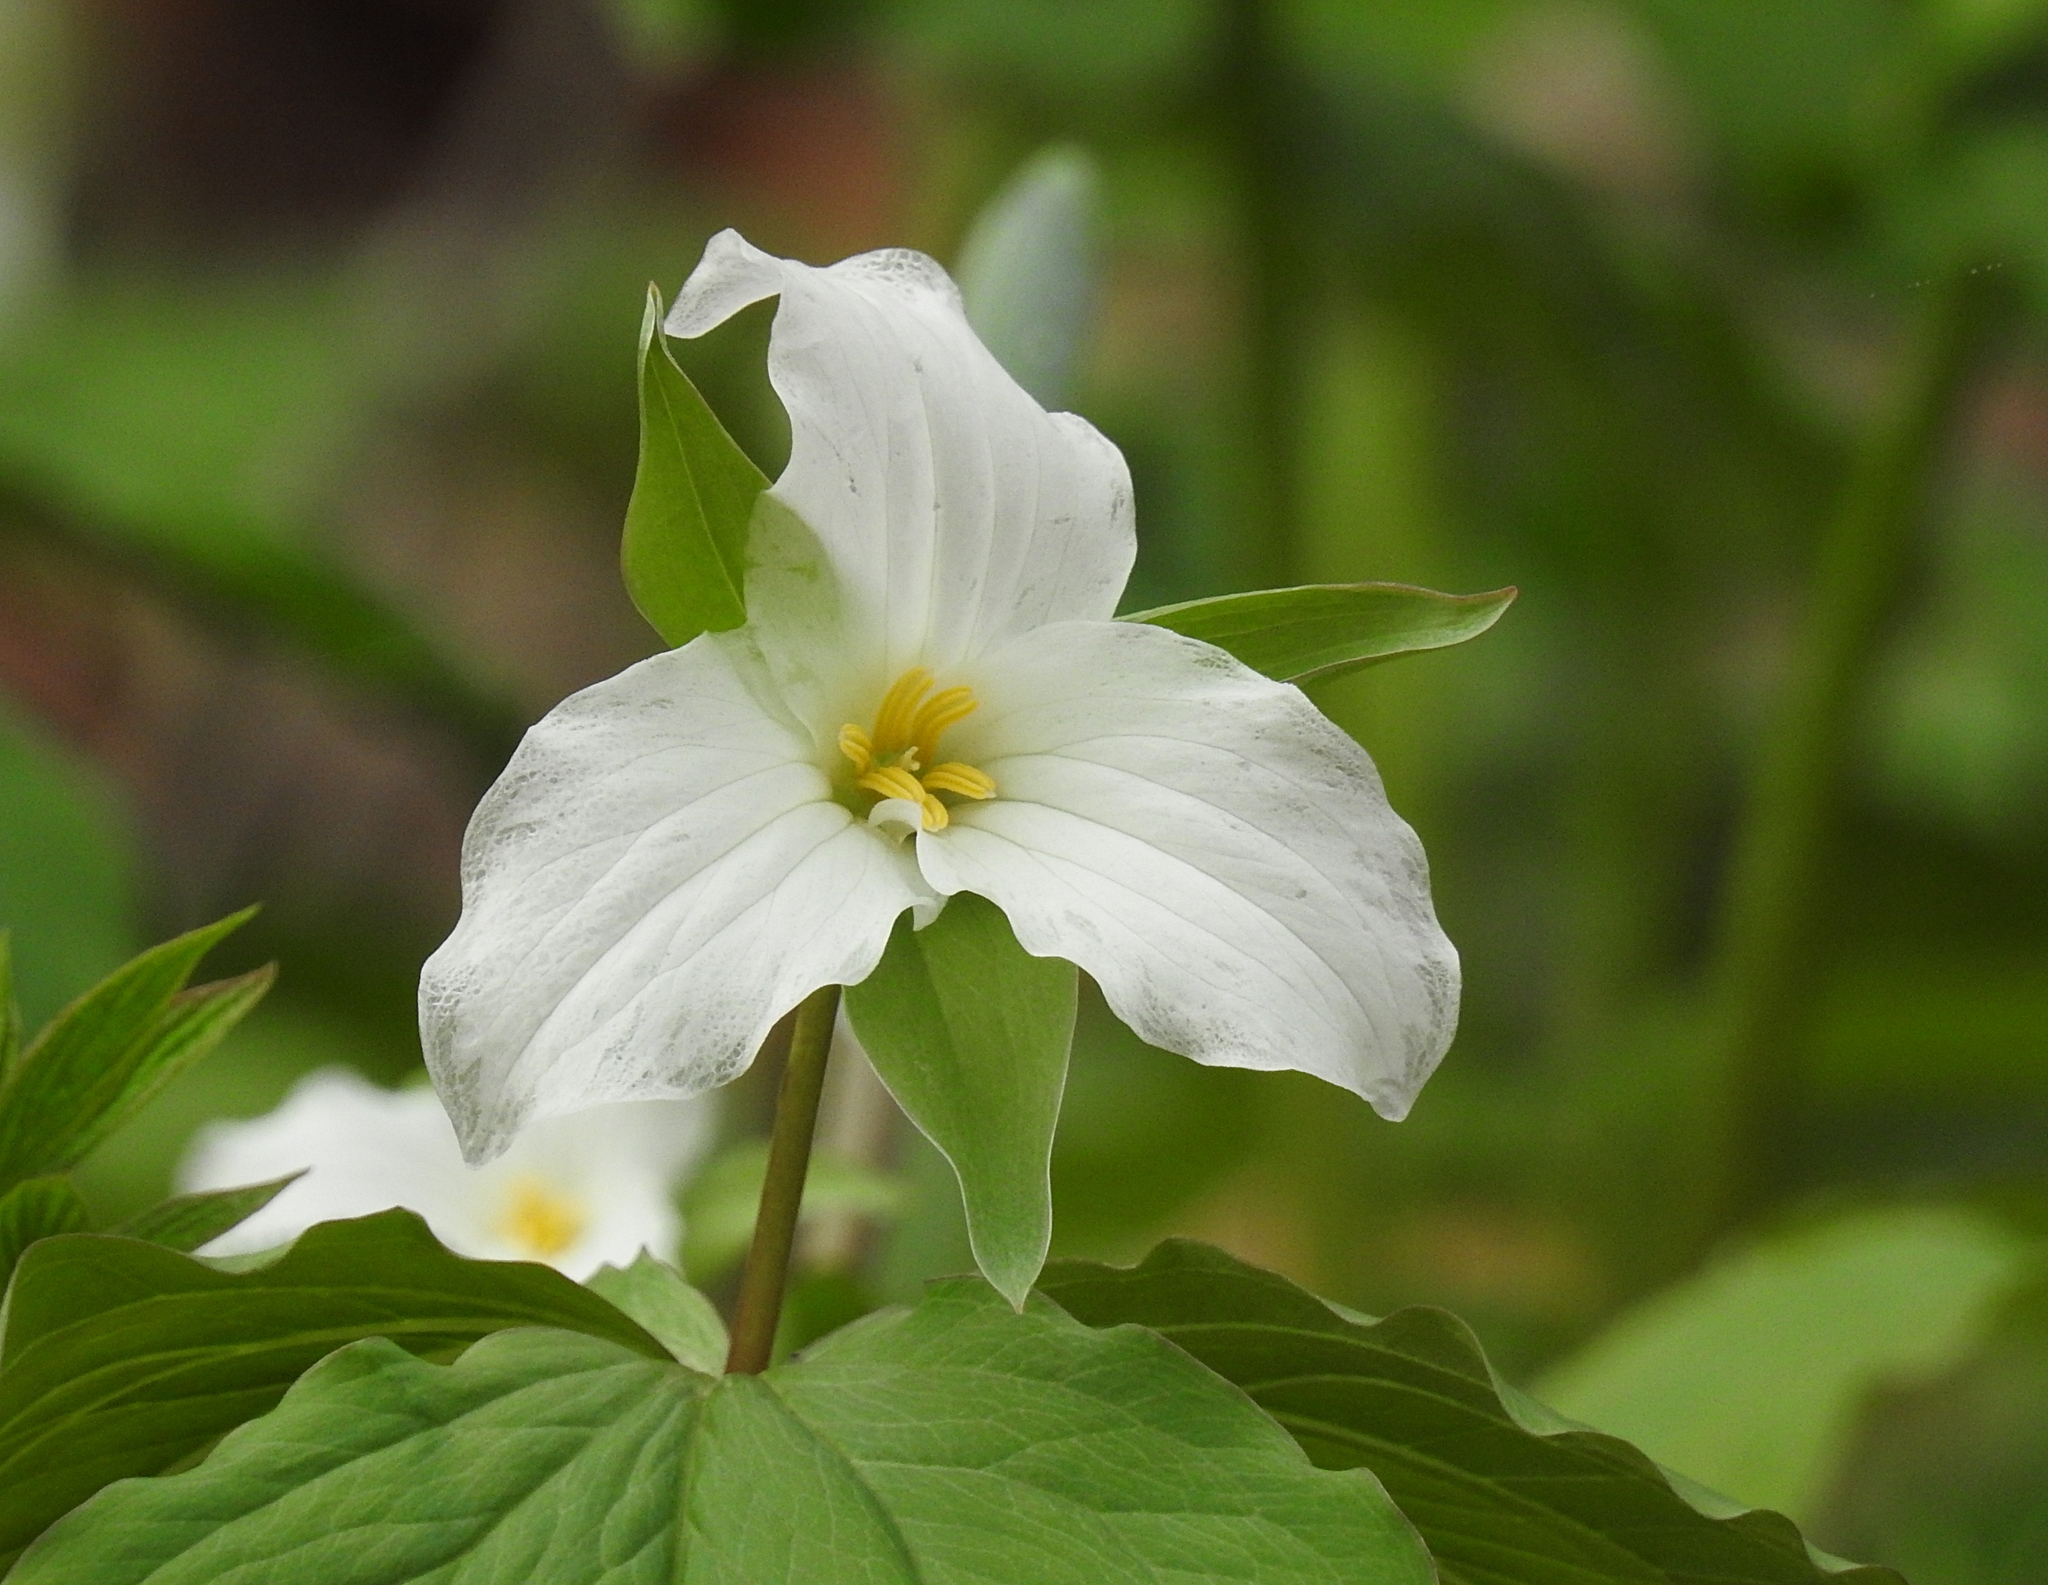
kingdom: Plantae
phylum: Tracheophyta
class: Liliopsida
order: Liliales
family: Melanthiaceae
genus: Trillium
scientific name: Trillium grandiflorum
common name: Great white trillium
